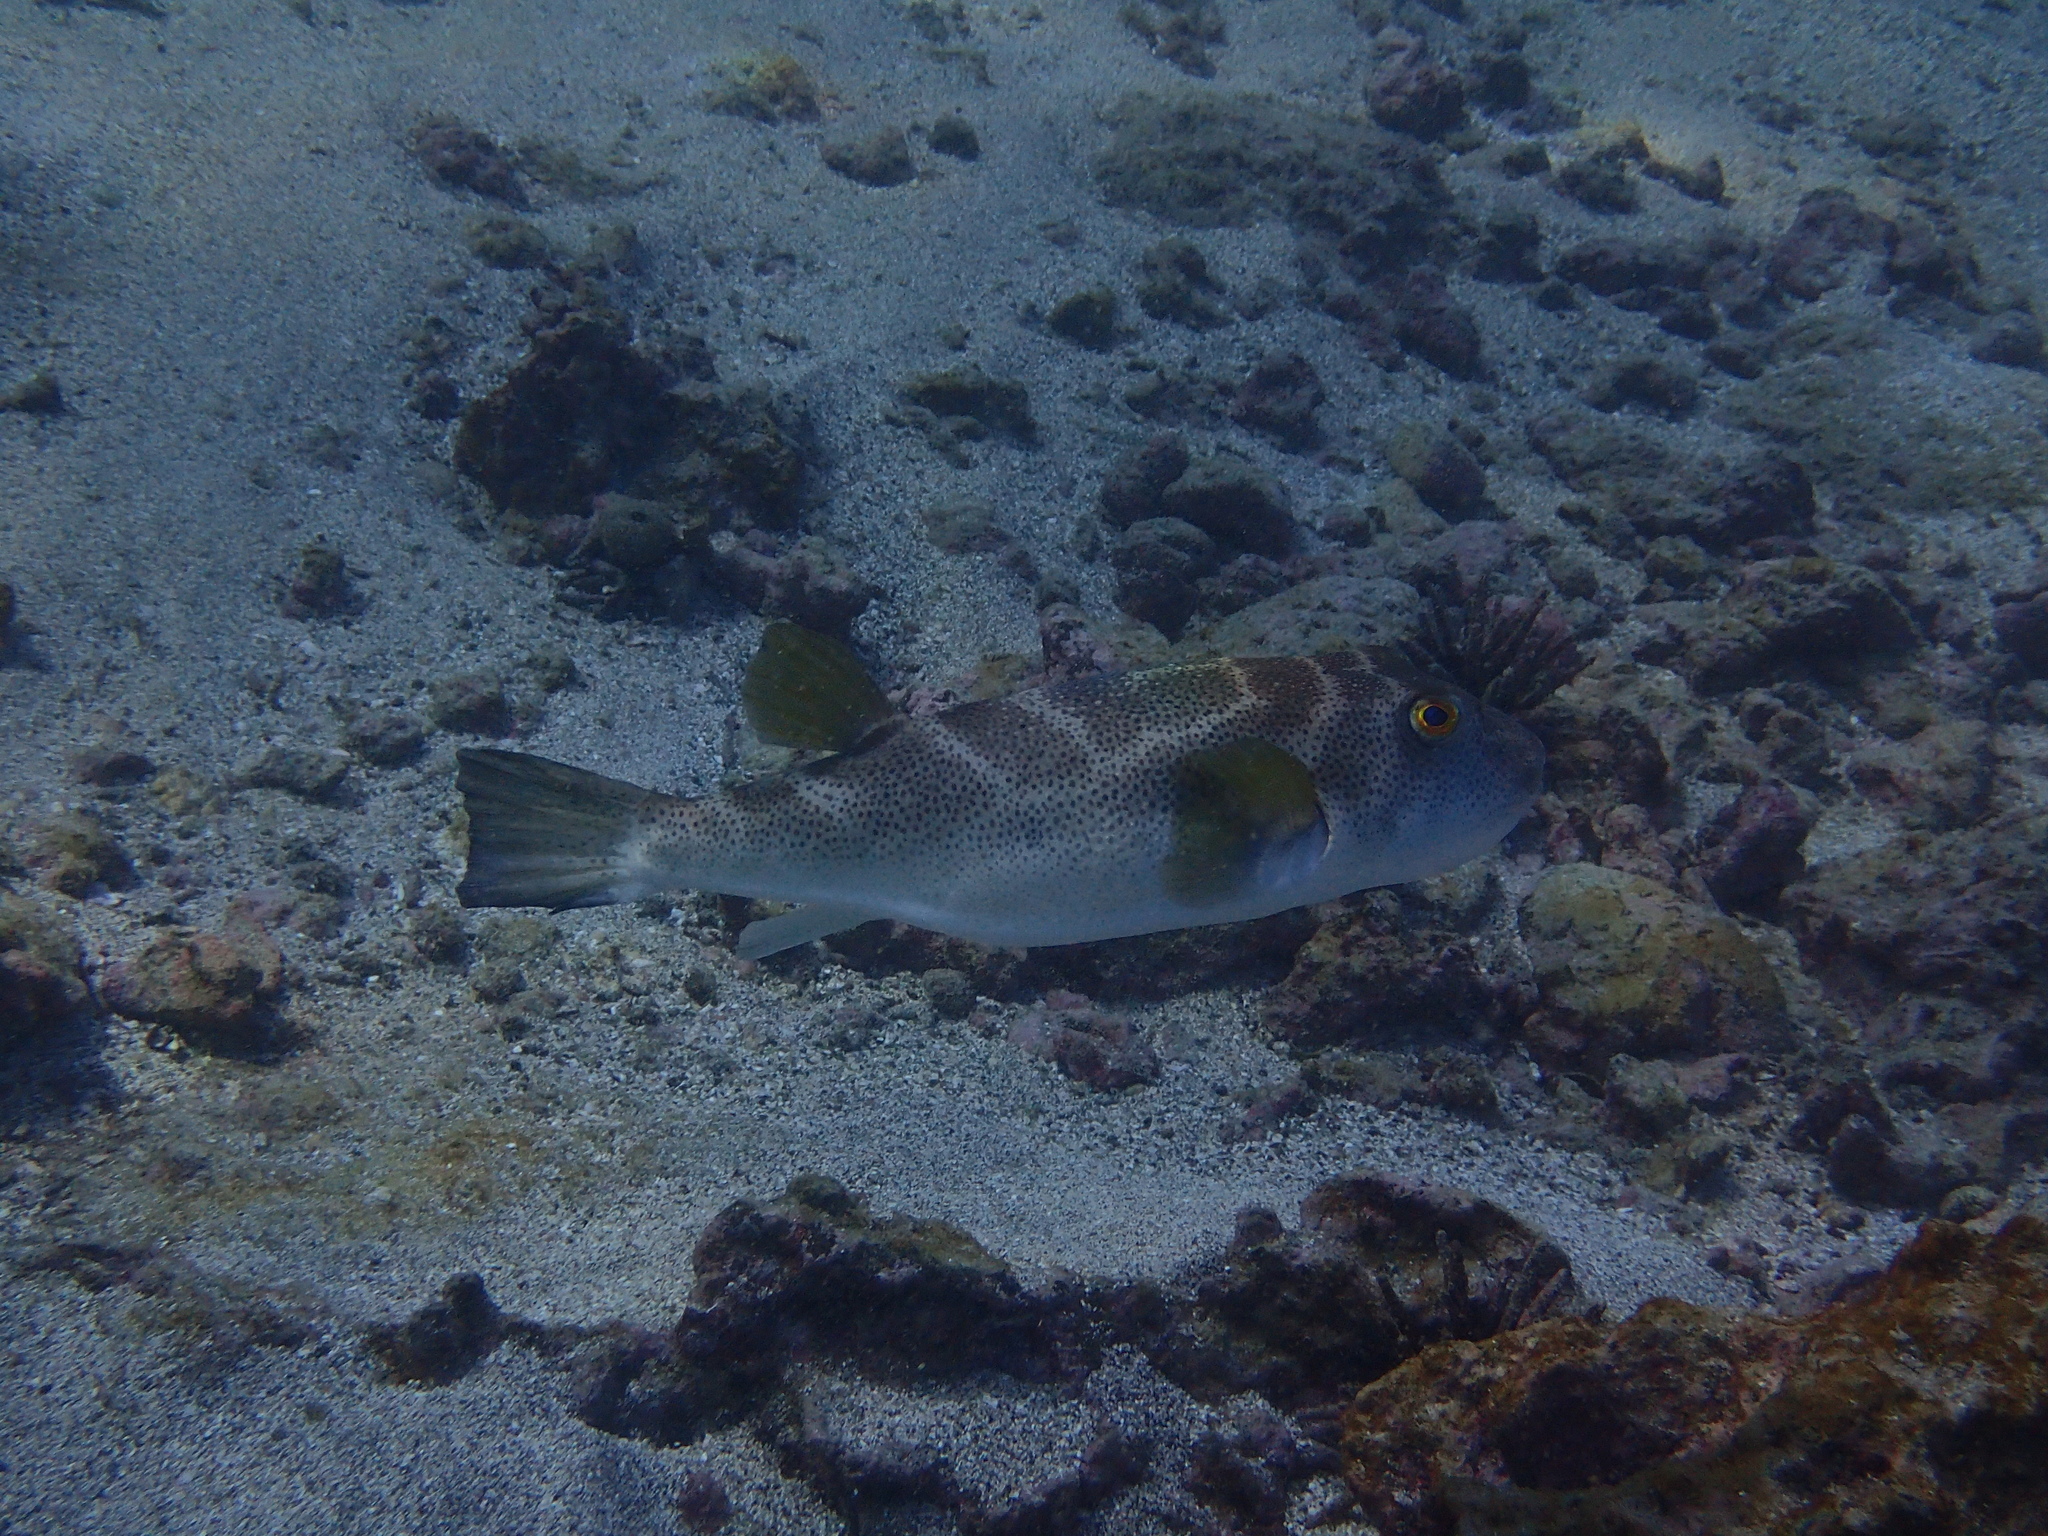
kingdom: Animalia
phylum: Chordata
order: Tetraodontiformes
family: Tetraodontidae
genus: Sphoeroides
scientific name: Sphoeroides annulatus
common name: Bullseye puffer
